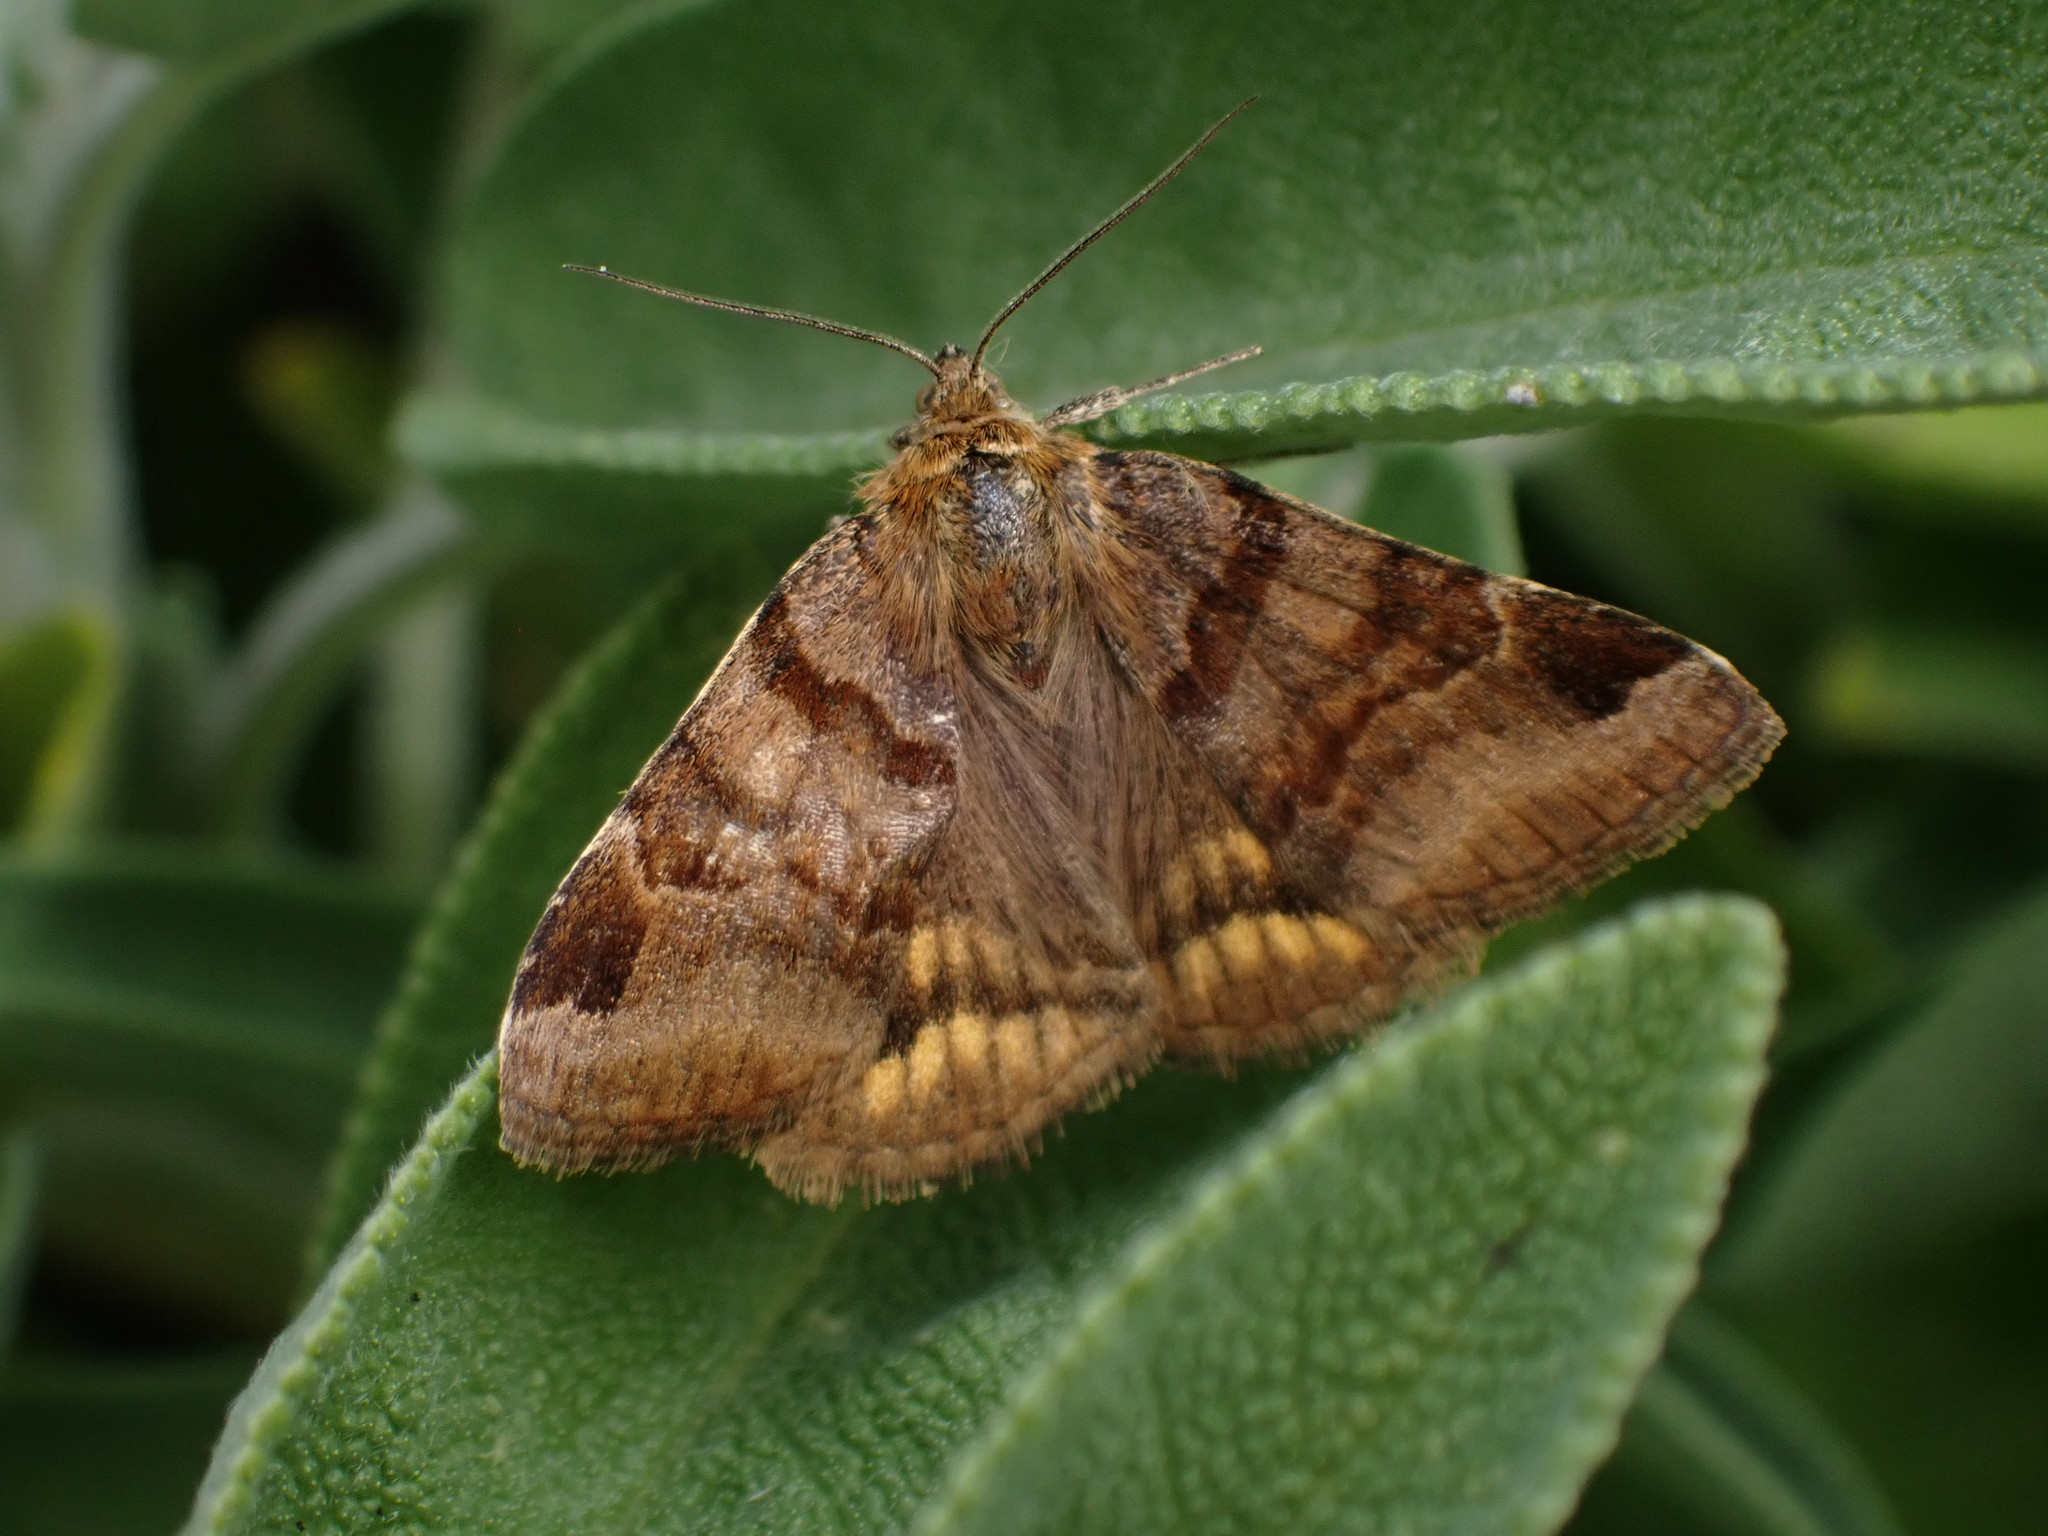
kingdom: Animalia
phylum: Arthropoda
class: Insecta
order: Lepidoptera
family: Erebidae
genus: Euclidia
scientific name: Euclidia glyphica
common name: Burnet companion
